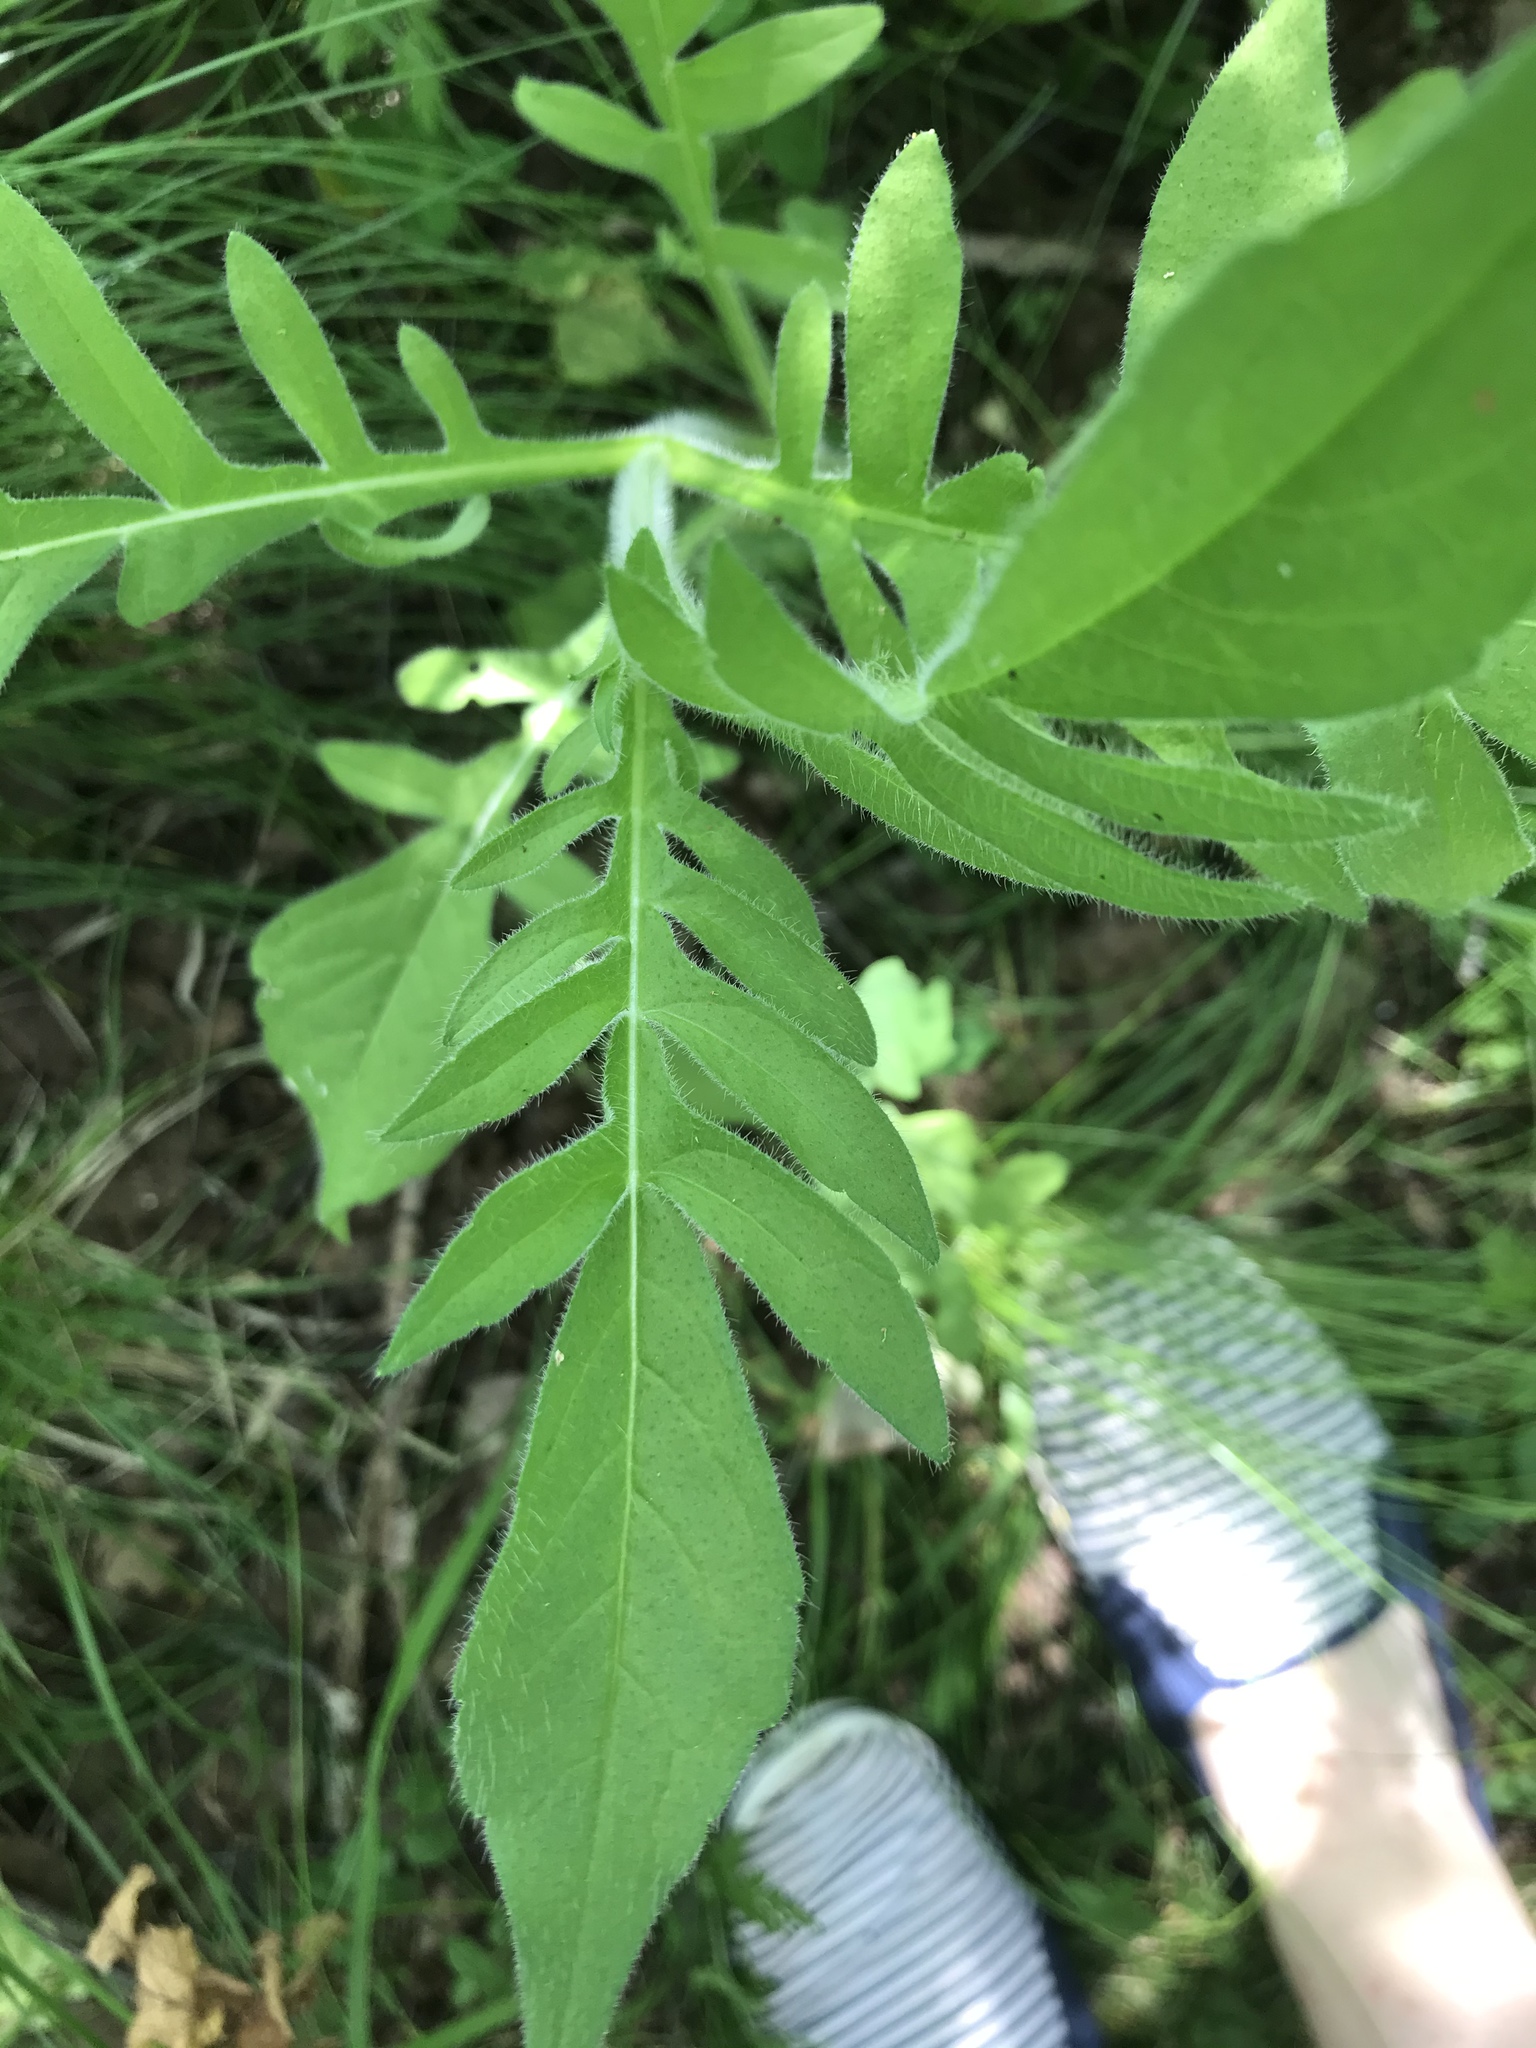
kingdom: Plantae
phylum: Tracheophyta
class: Magnoliopsida
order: Dipsacales
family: Caprifoliaceae
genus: Knautia
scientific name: Knautia arvensis
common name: Field scabiosa
